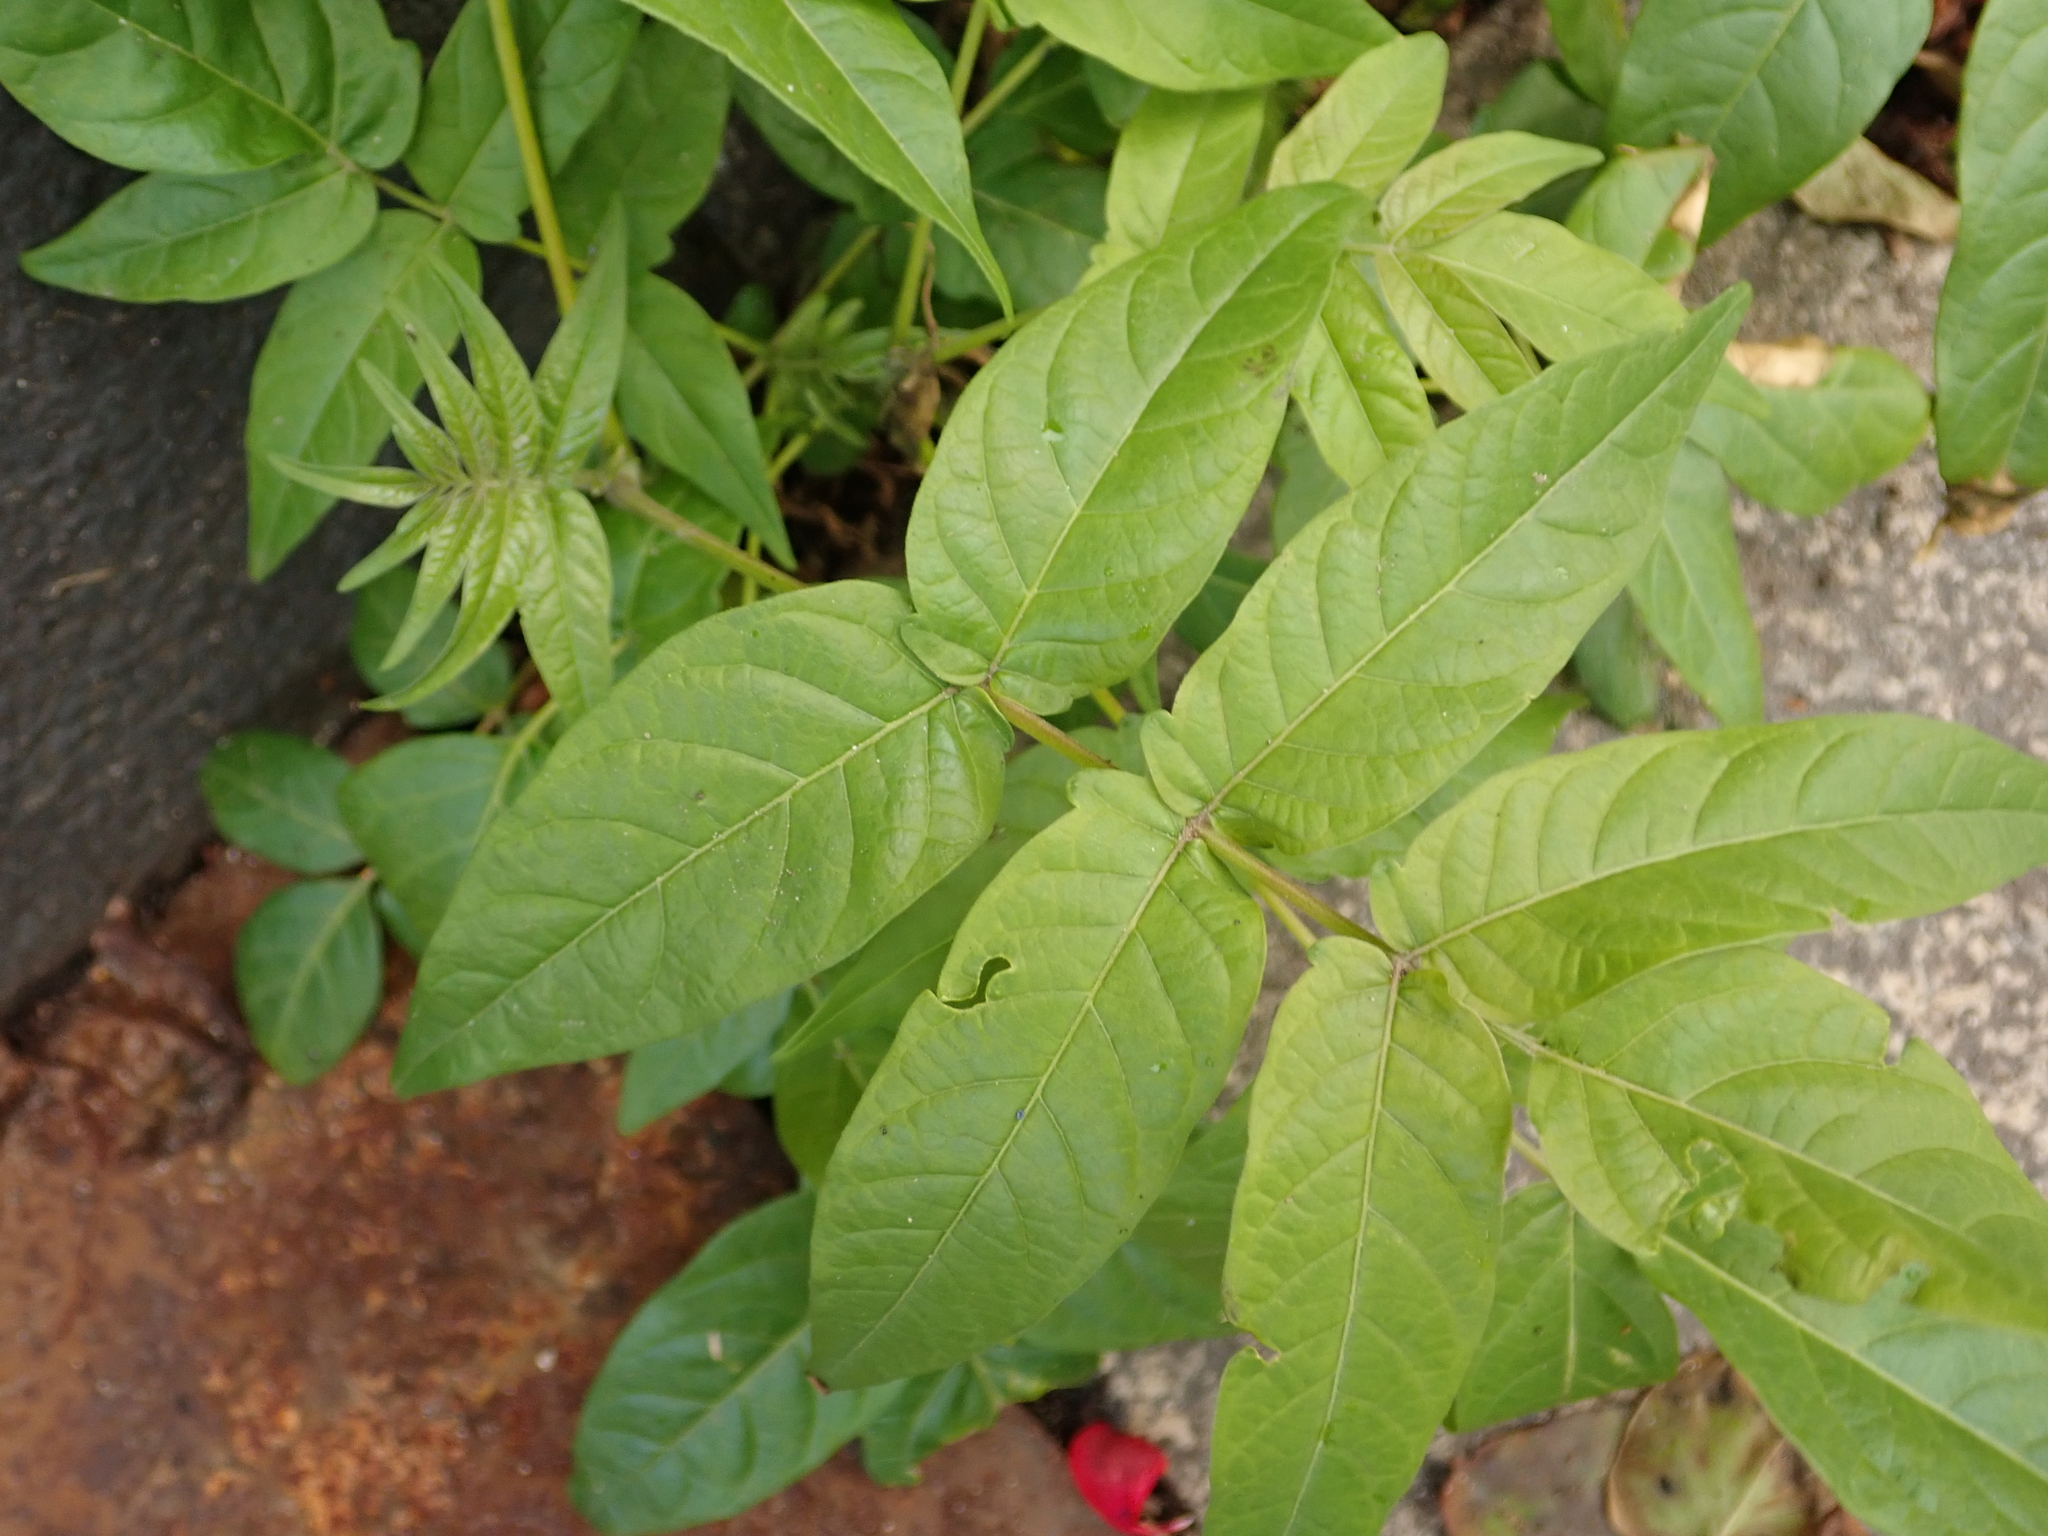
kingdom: Plantae
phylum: Tracheophyta
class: Magnoliopsida
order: Sapindales
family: Simaroubaceae
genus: Ailanthus
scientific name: Ailanthus altissima
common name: Tree-of-heaven
